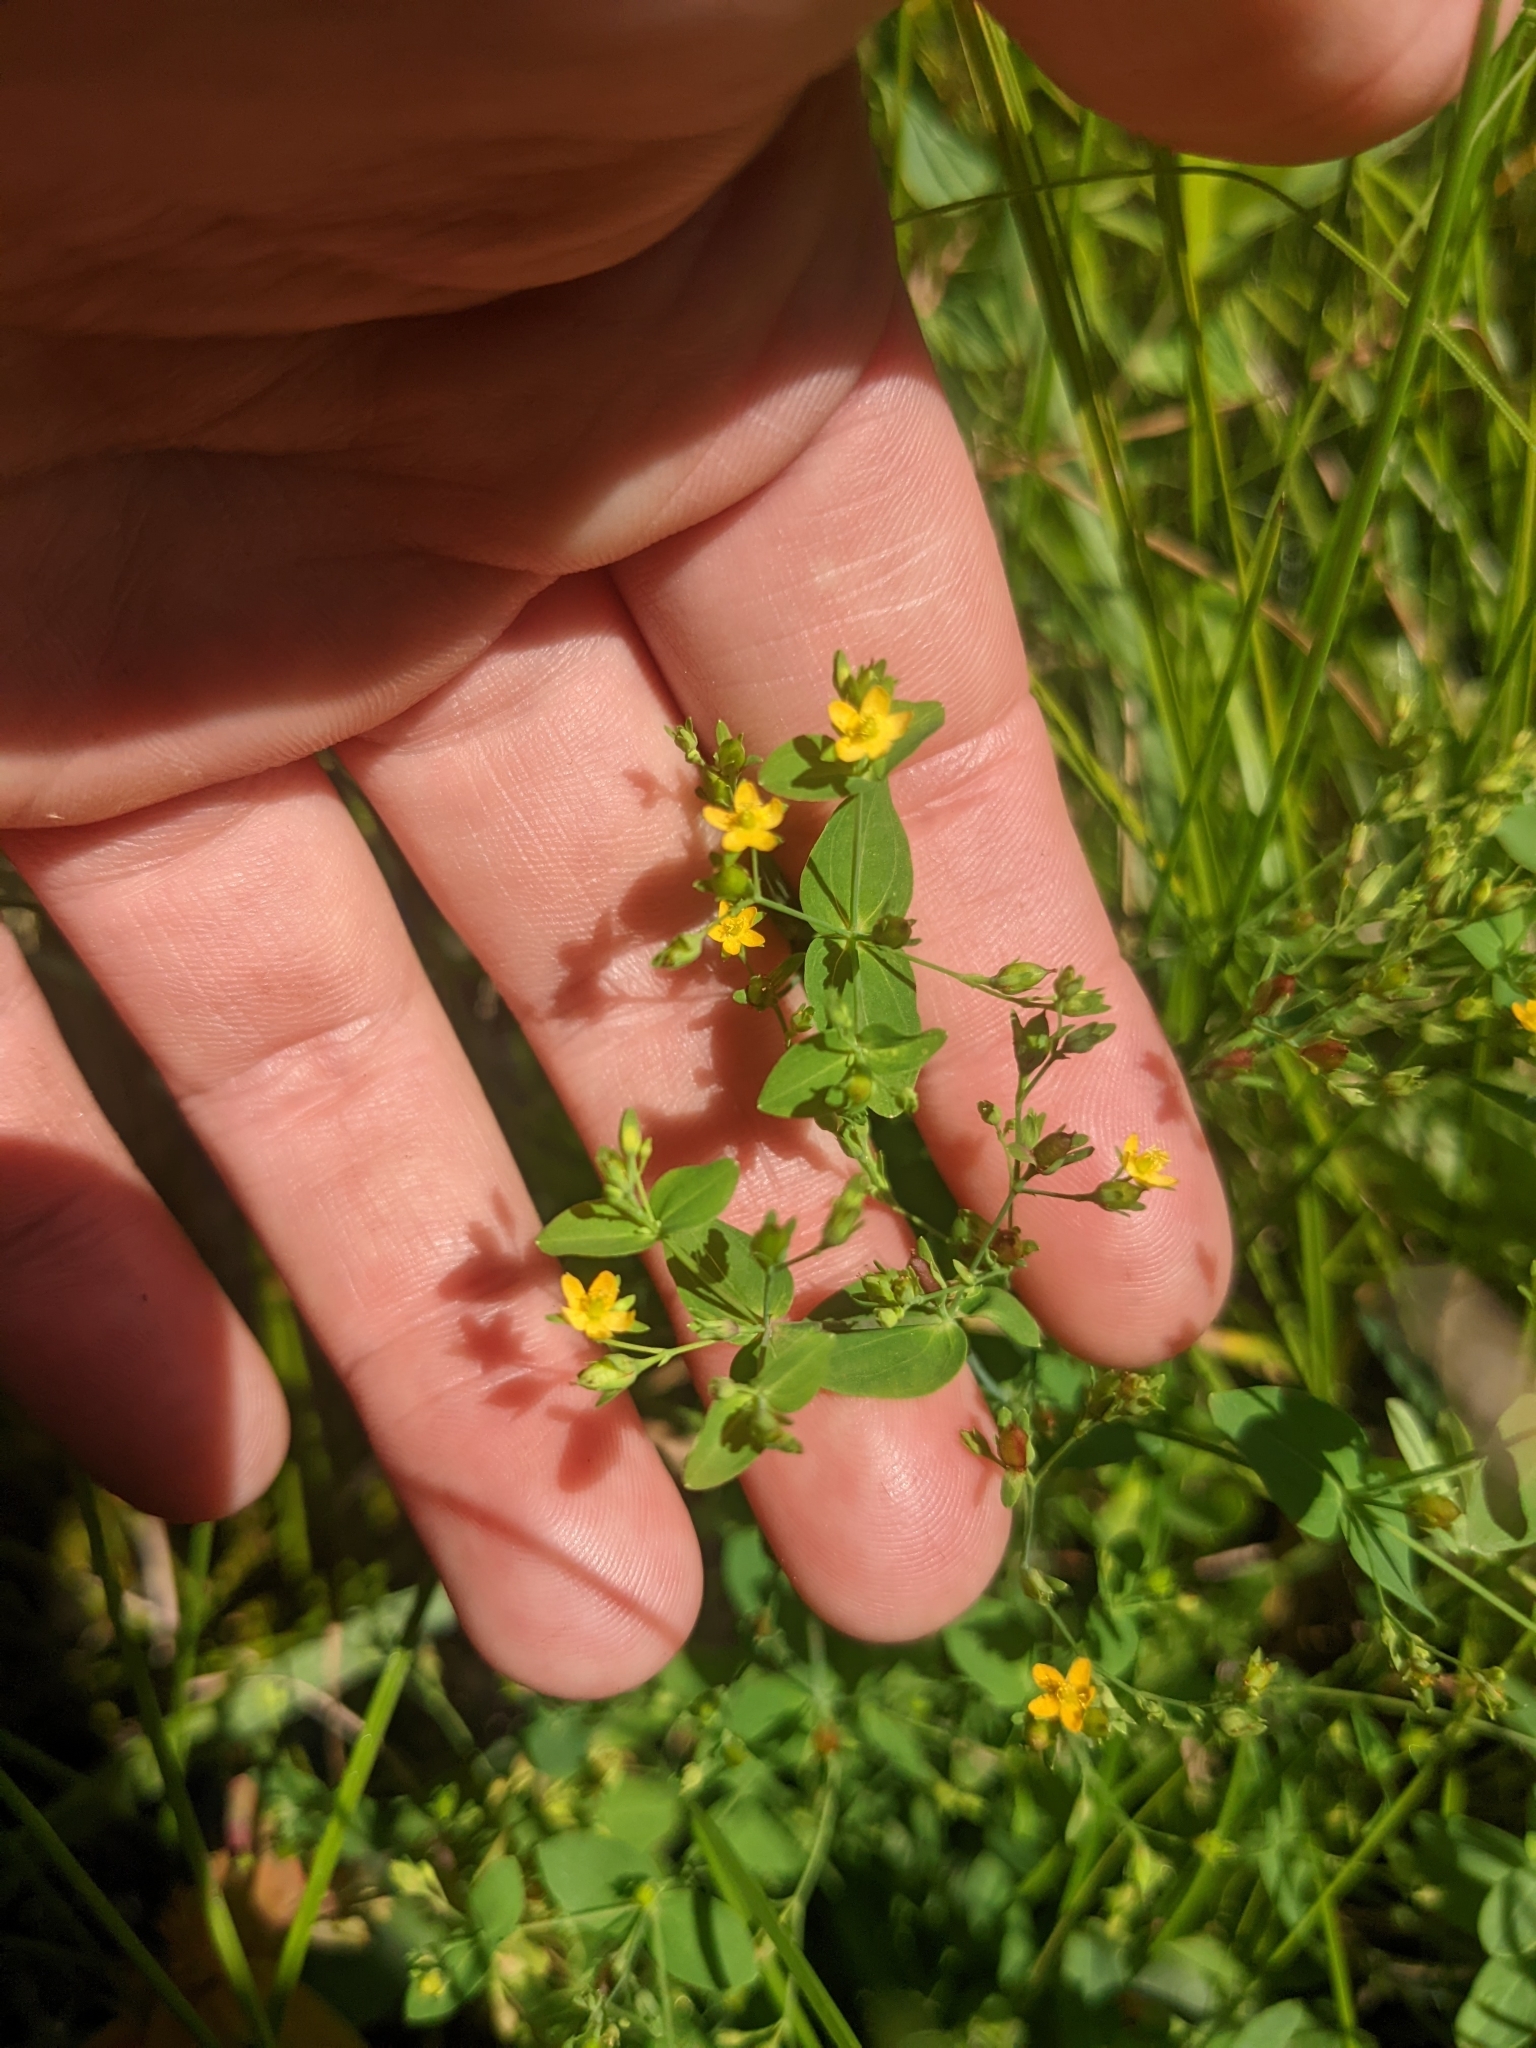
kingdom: Plantae
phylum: Tracheophyta
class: Magnoliopsida
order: Malpighiales
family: Hypericaceae
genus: Hypericum
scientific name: Hypericum mutilum
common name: Dwarf st. john's-wort
